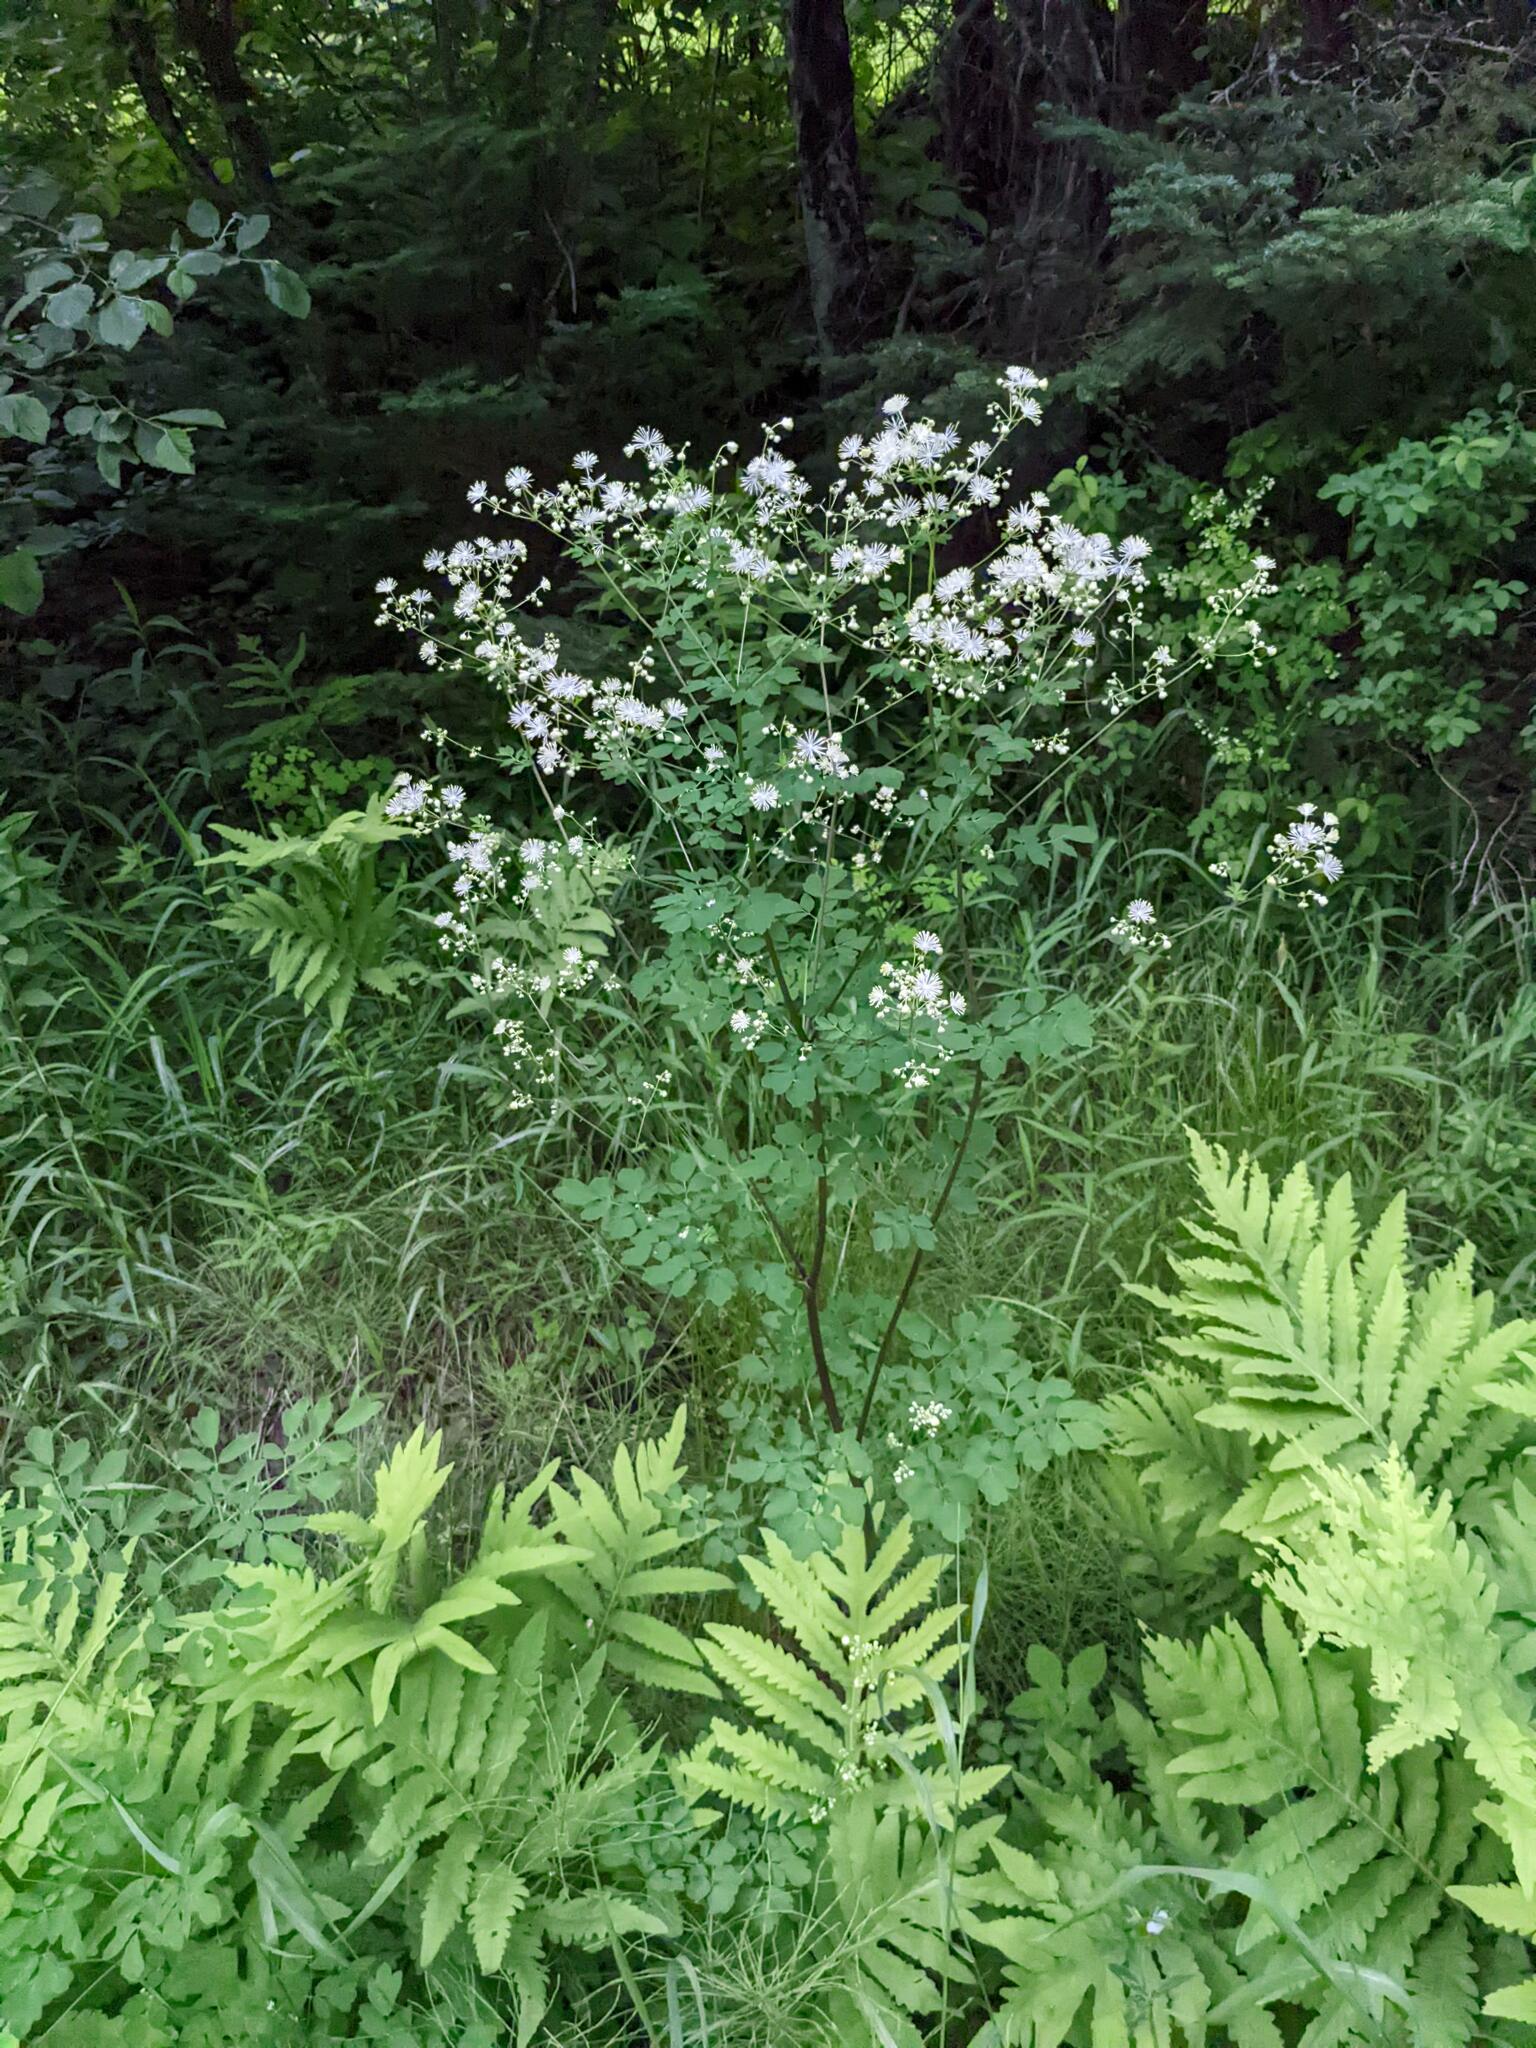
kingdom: Plantae
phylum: Tracheophyta
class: Magnoliopsida
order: Ranunculales
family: Ranunculaceae
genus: Thalictrum
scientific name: Thalictrum pubescens
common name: King-of-the-meadow
